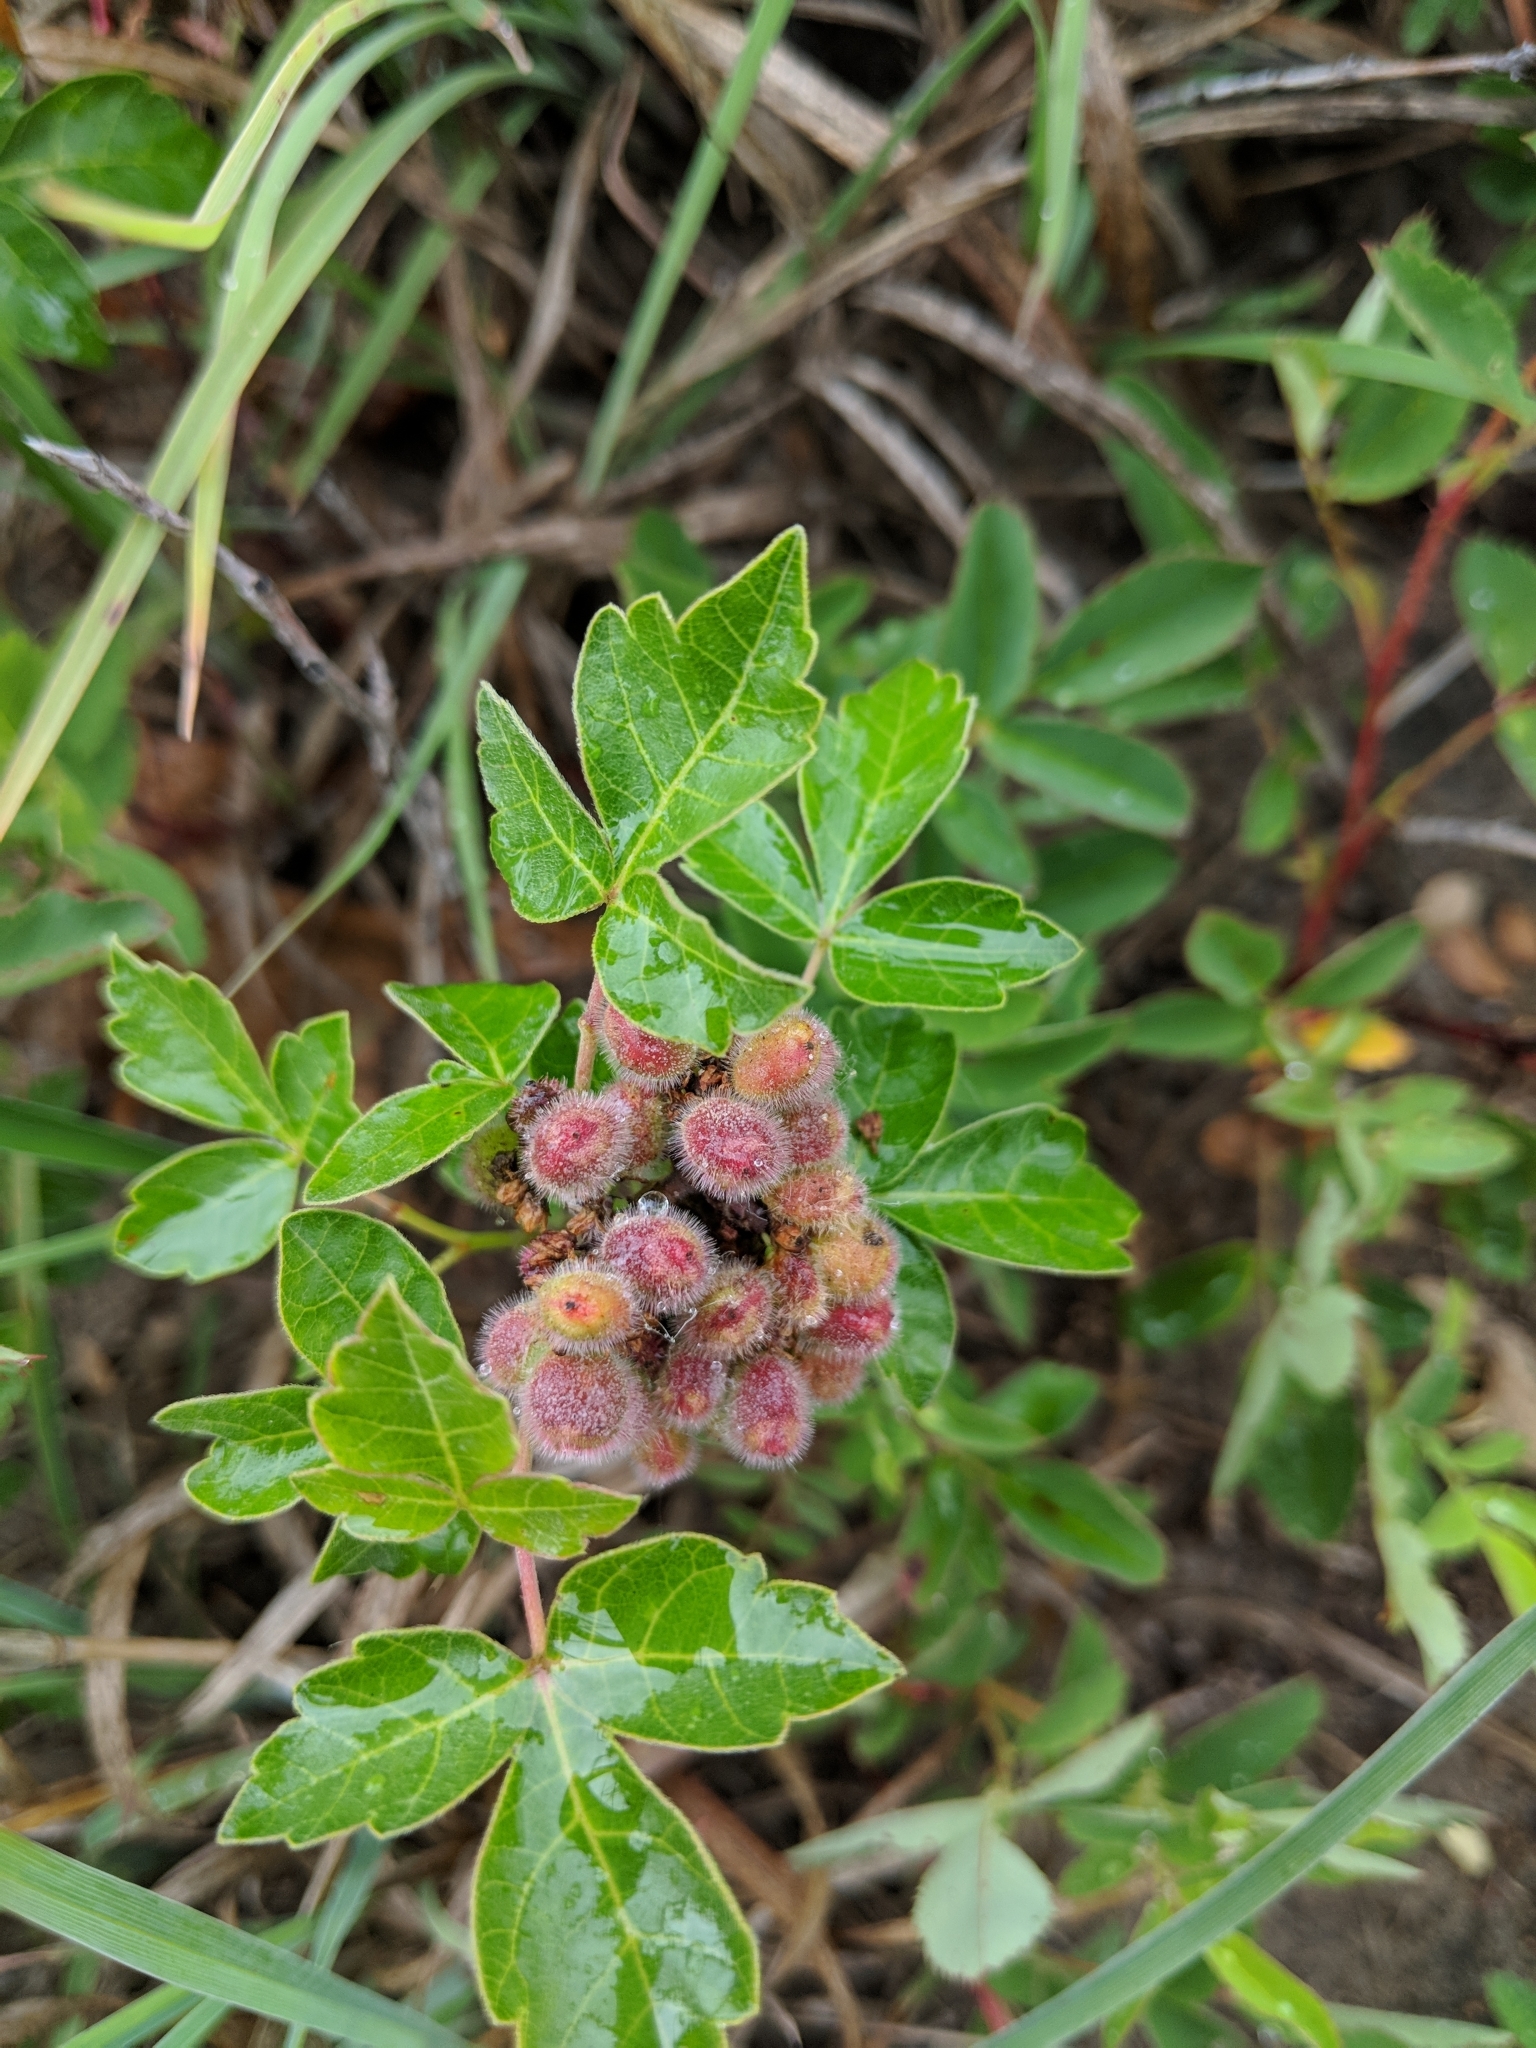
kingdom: Plantae
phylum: Tracheophyta
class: Magnoliopsida
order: Sapindales
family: Anacardiaceae
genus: Rhus
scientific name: Rhus aromatica
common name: Aromatic sumac
